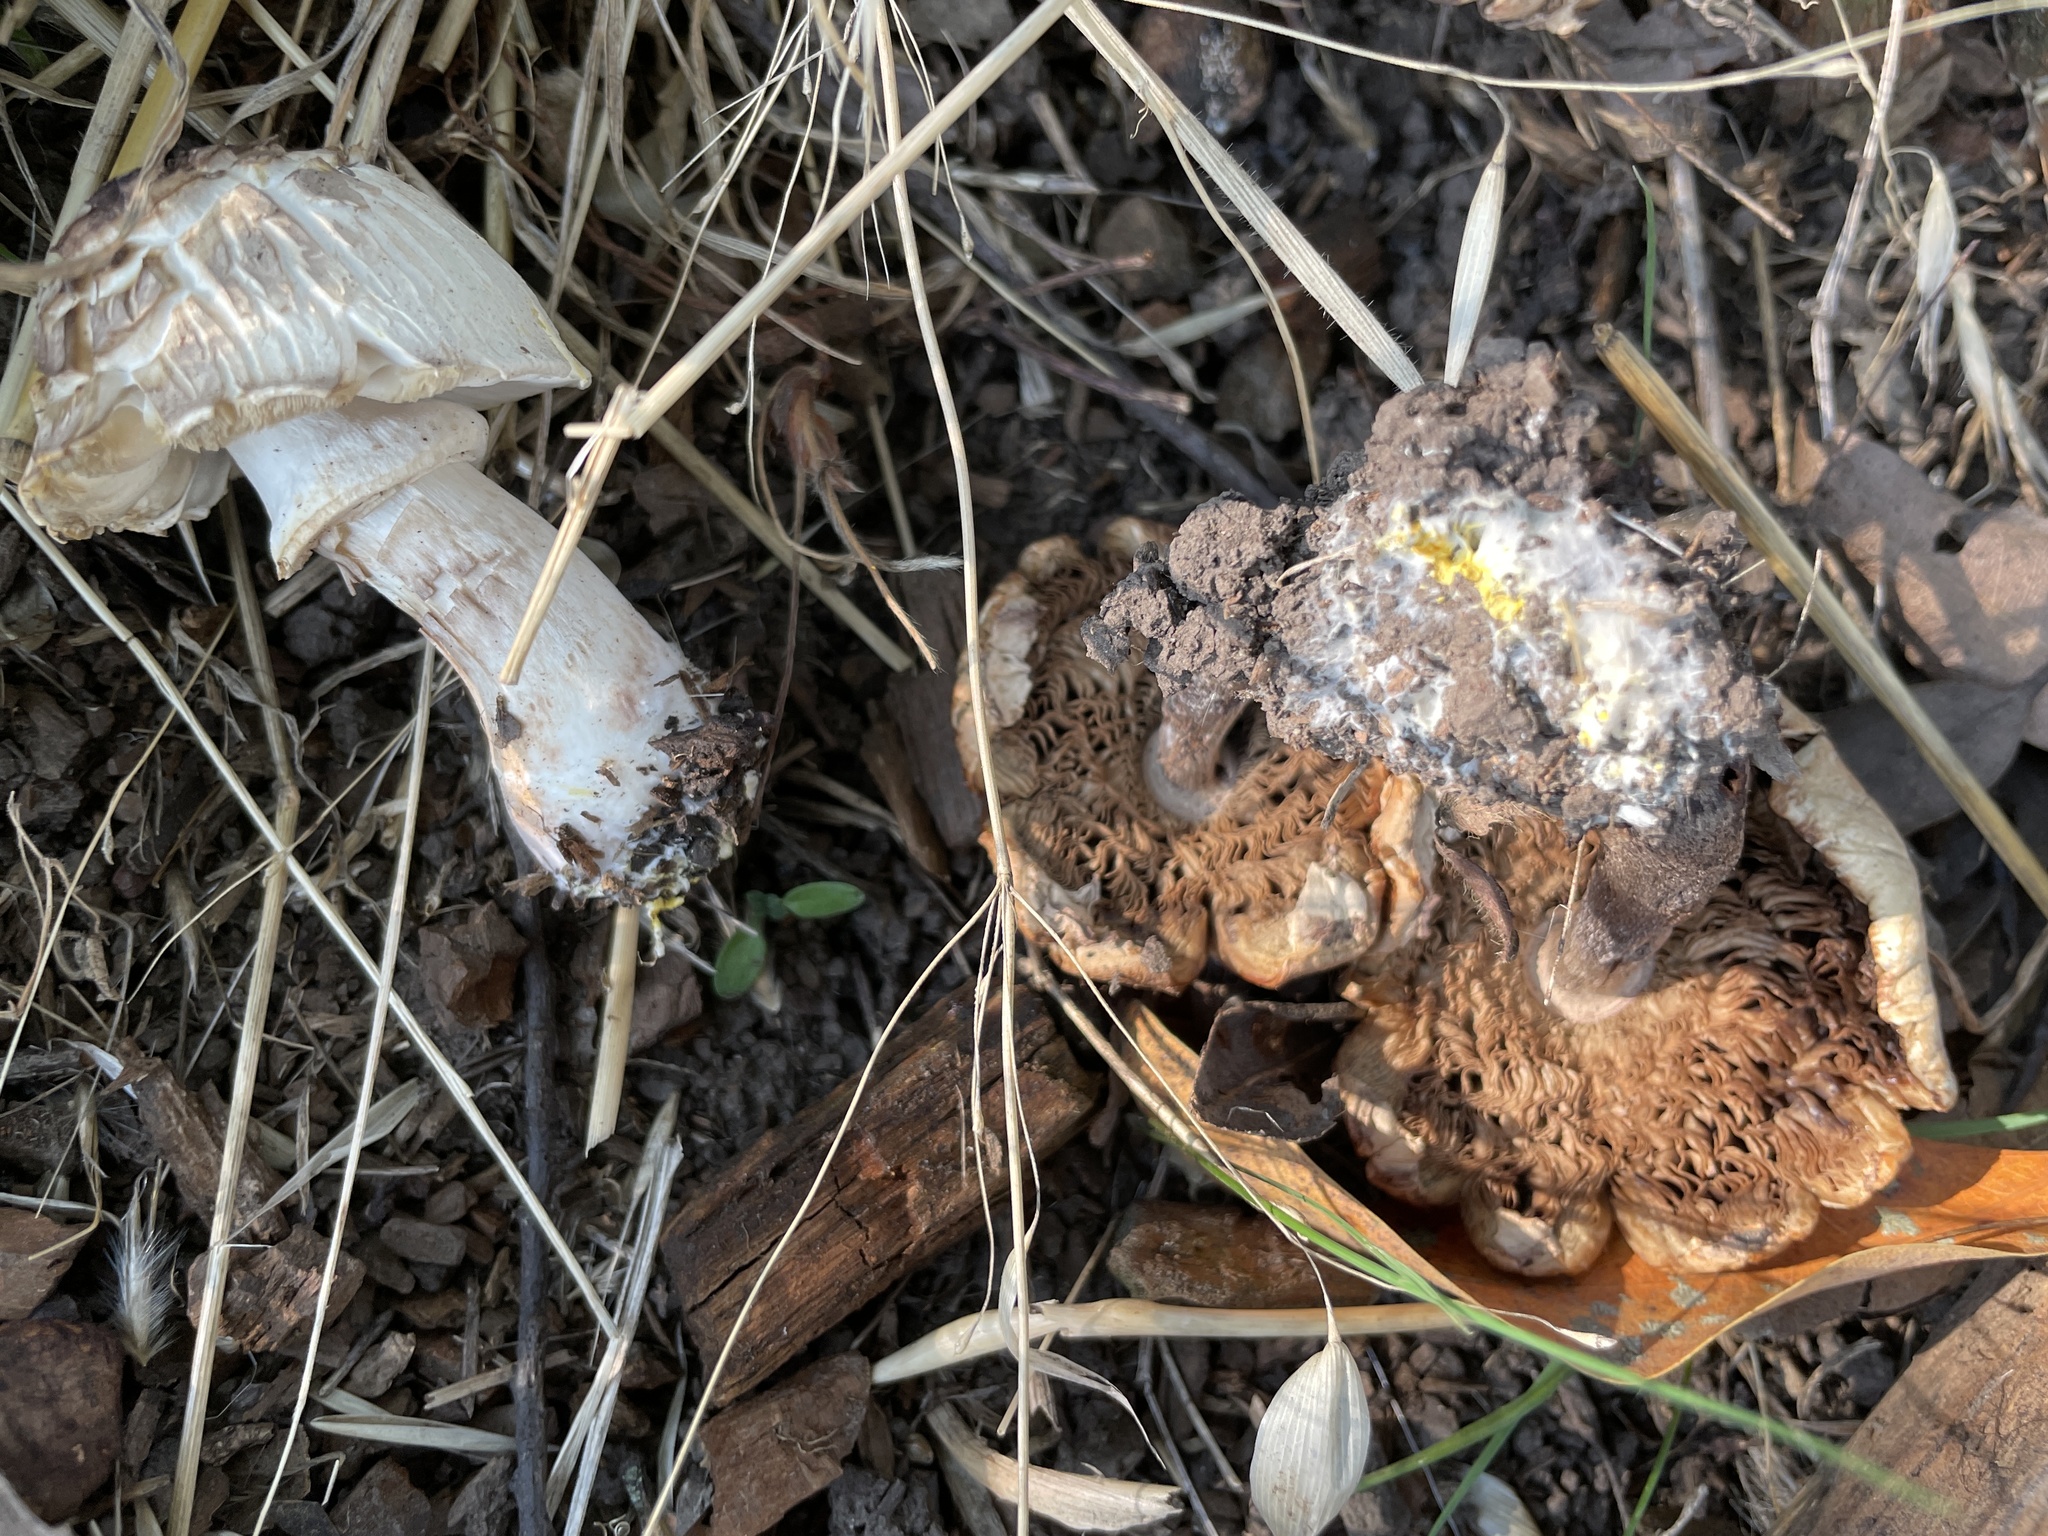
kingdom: Fungi
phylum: Basidiomycota
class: Agaricomycetes
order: Agaricales
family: Agaricaceae
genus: Agaricus
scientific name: Agaricus californicus
